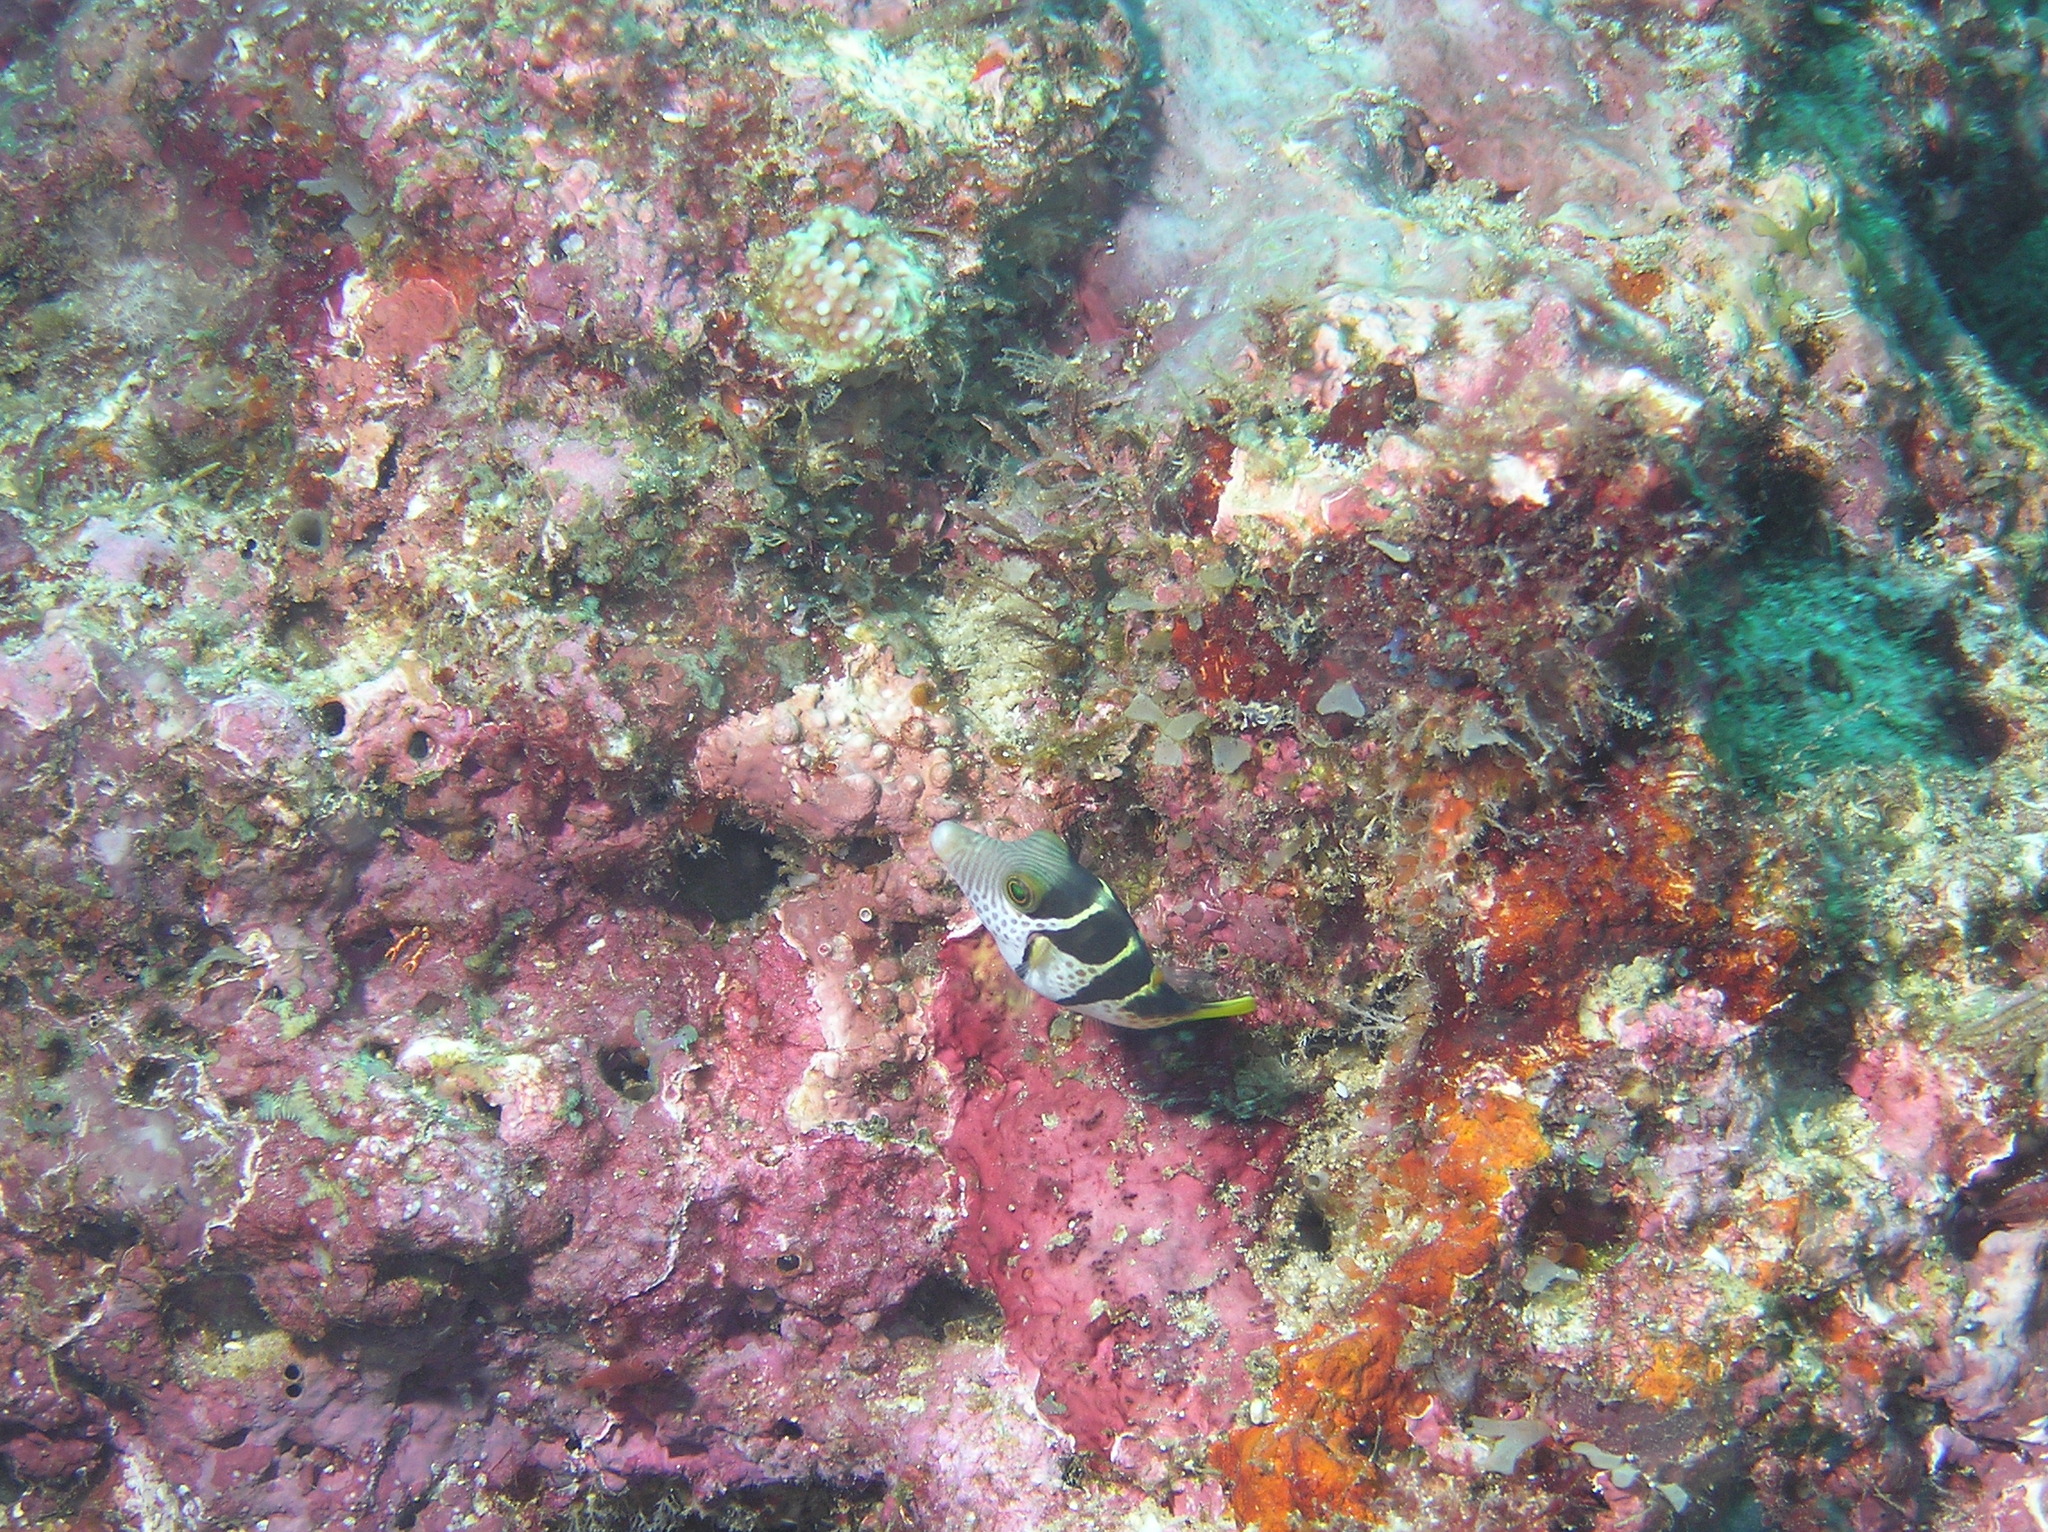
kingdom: Animalia
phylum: Chordata
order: Tetraodontiformes
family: Tetraodontidae
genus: Canthigaster
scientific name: Canthigaster valentini
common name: Banded toby
